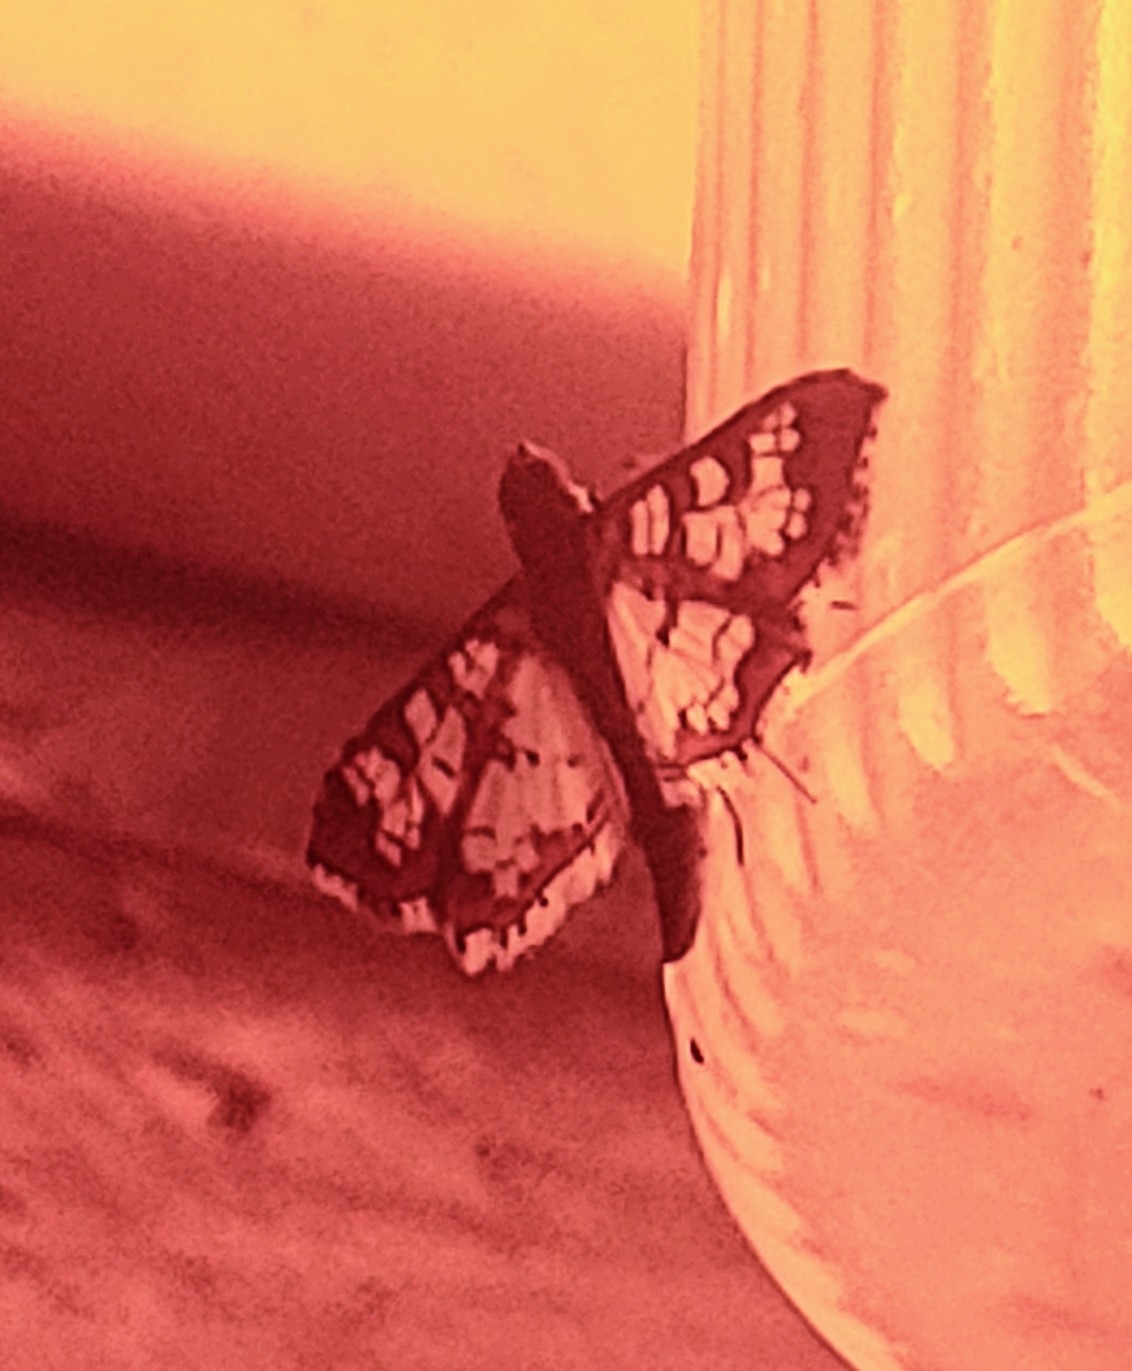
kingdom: Animalia
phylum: Arthropoda
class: Insecta
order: Lepidoptera
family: Crambidae
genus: Samea
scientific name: Samea ecclesialis
